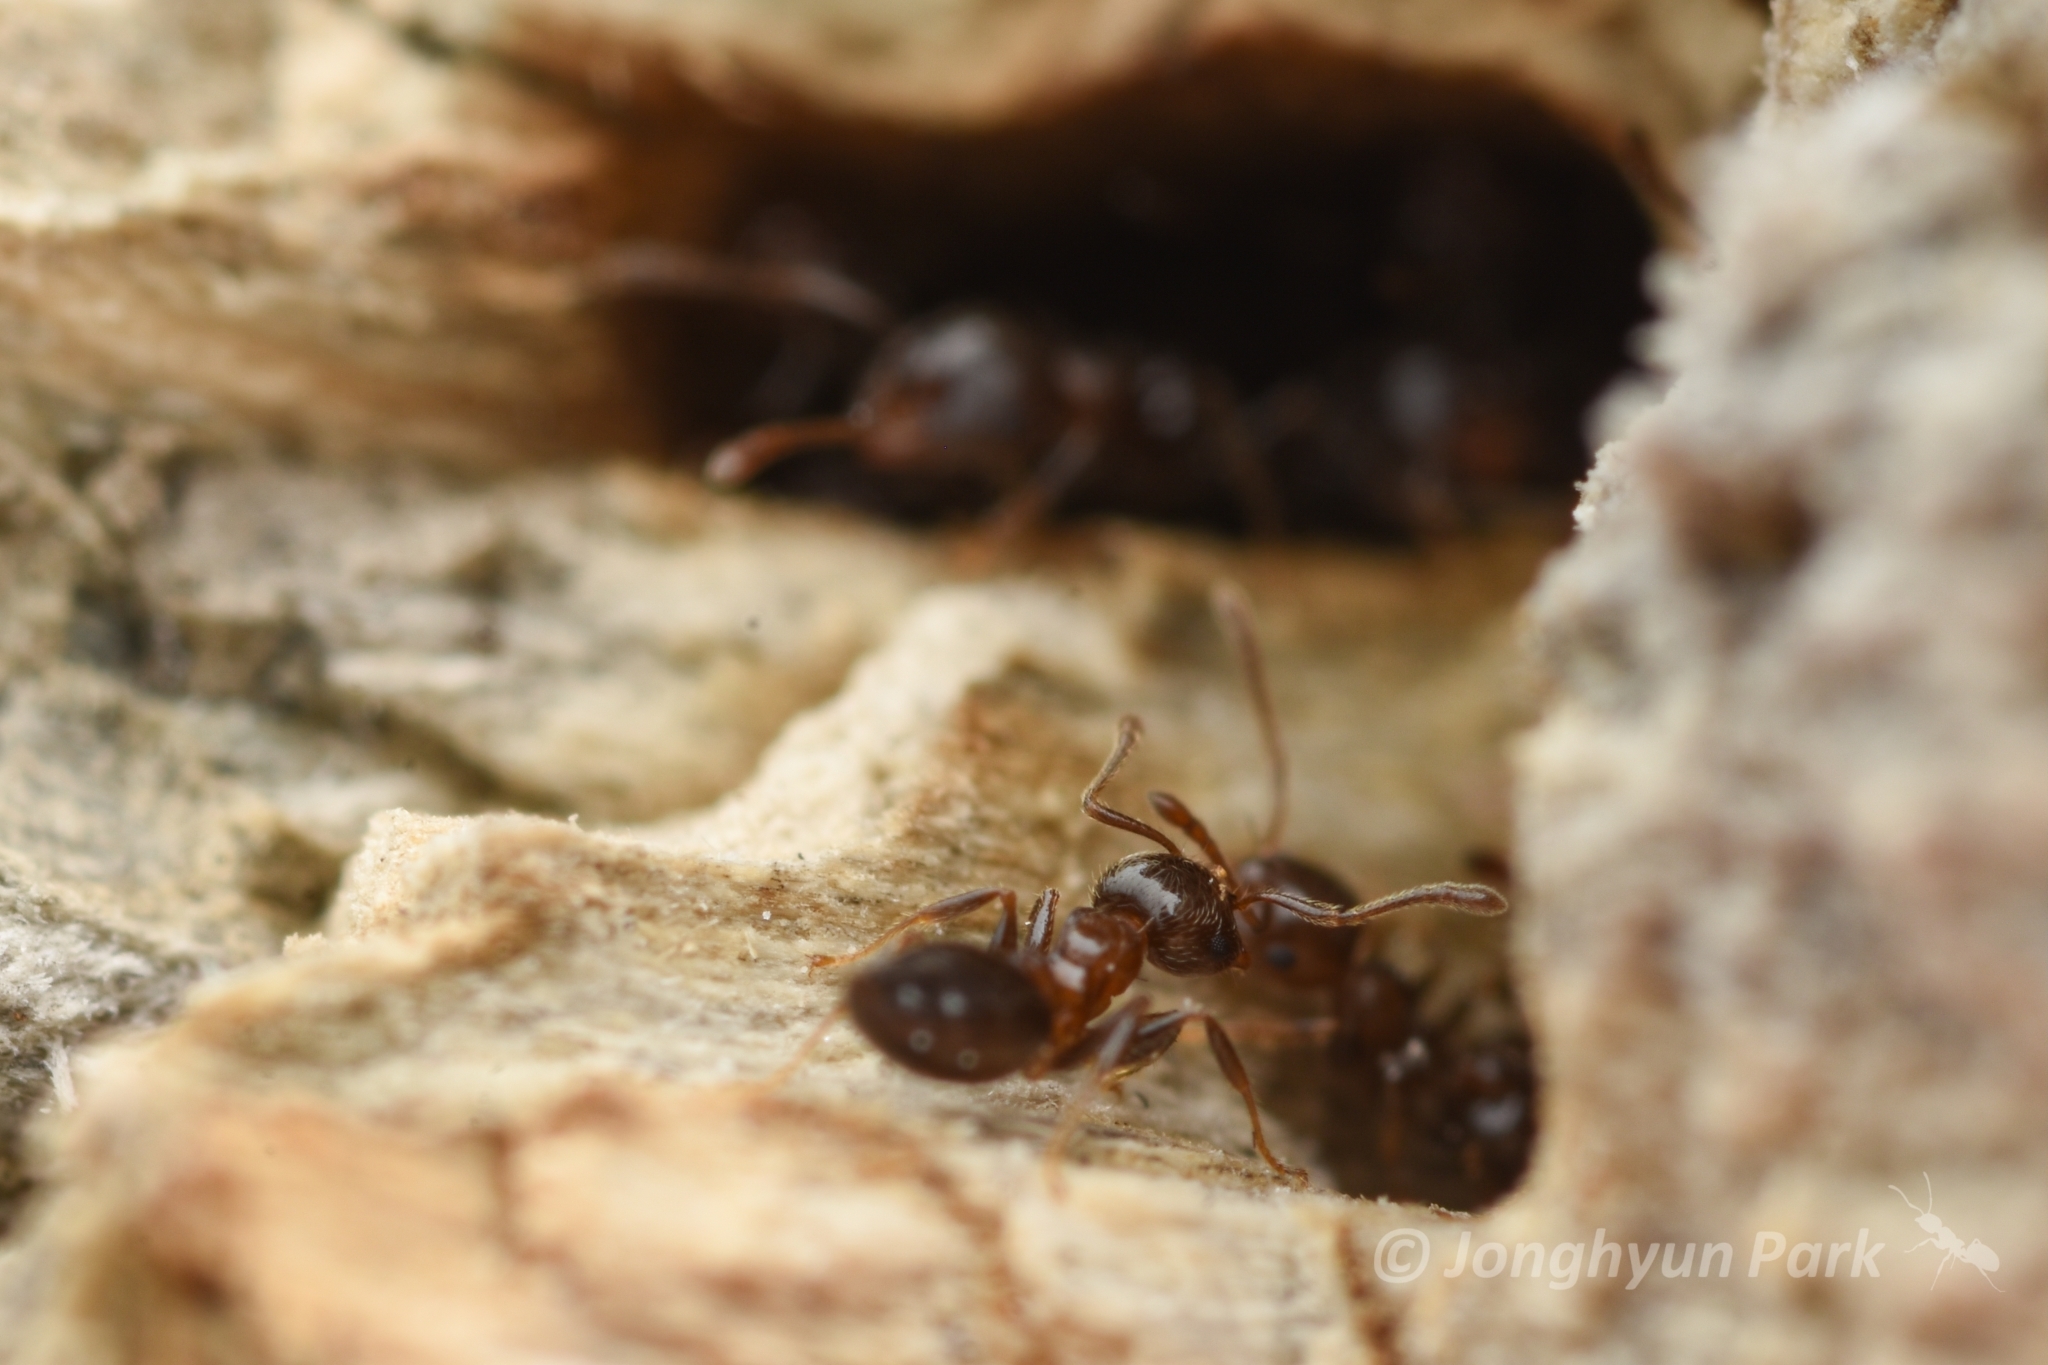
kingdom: Animalia
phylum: Arthropoda
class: Insecta
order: Hymenoptera
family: Formicidae
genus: Crematogaster
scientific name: Crematogaster matsumurai
